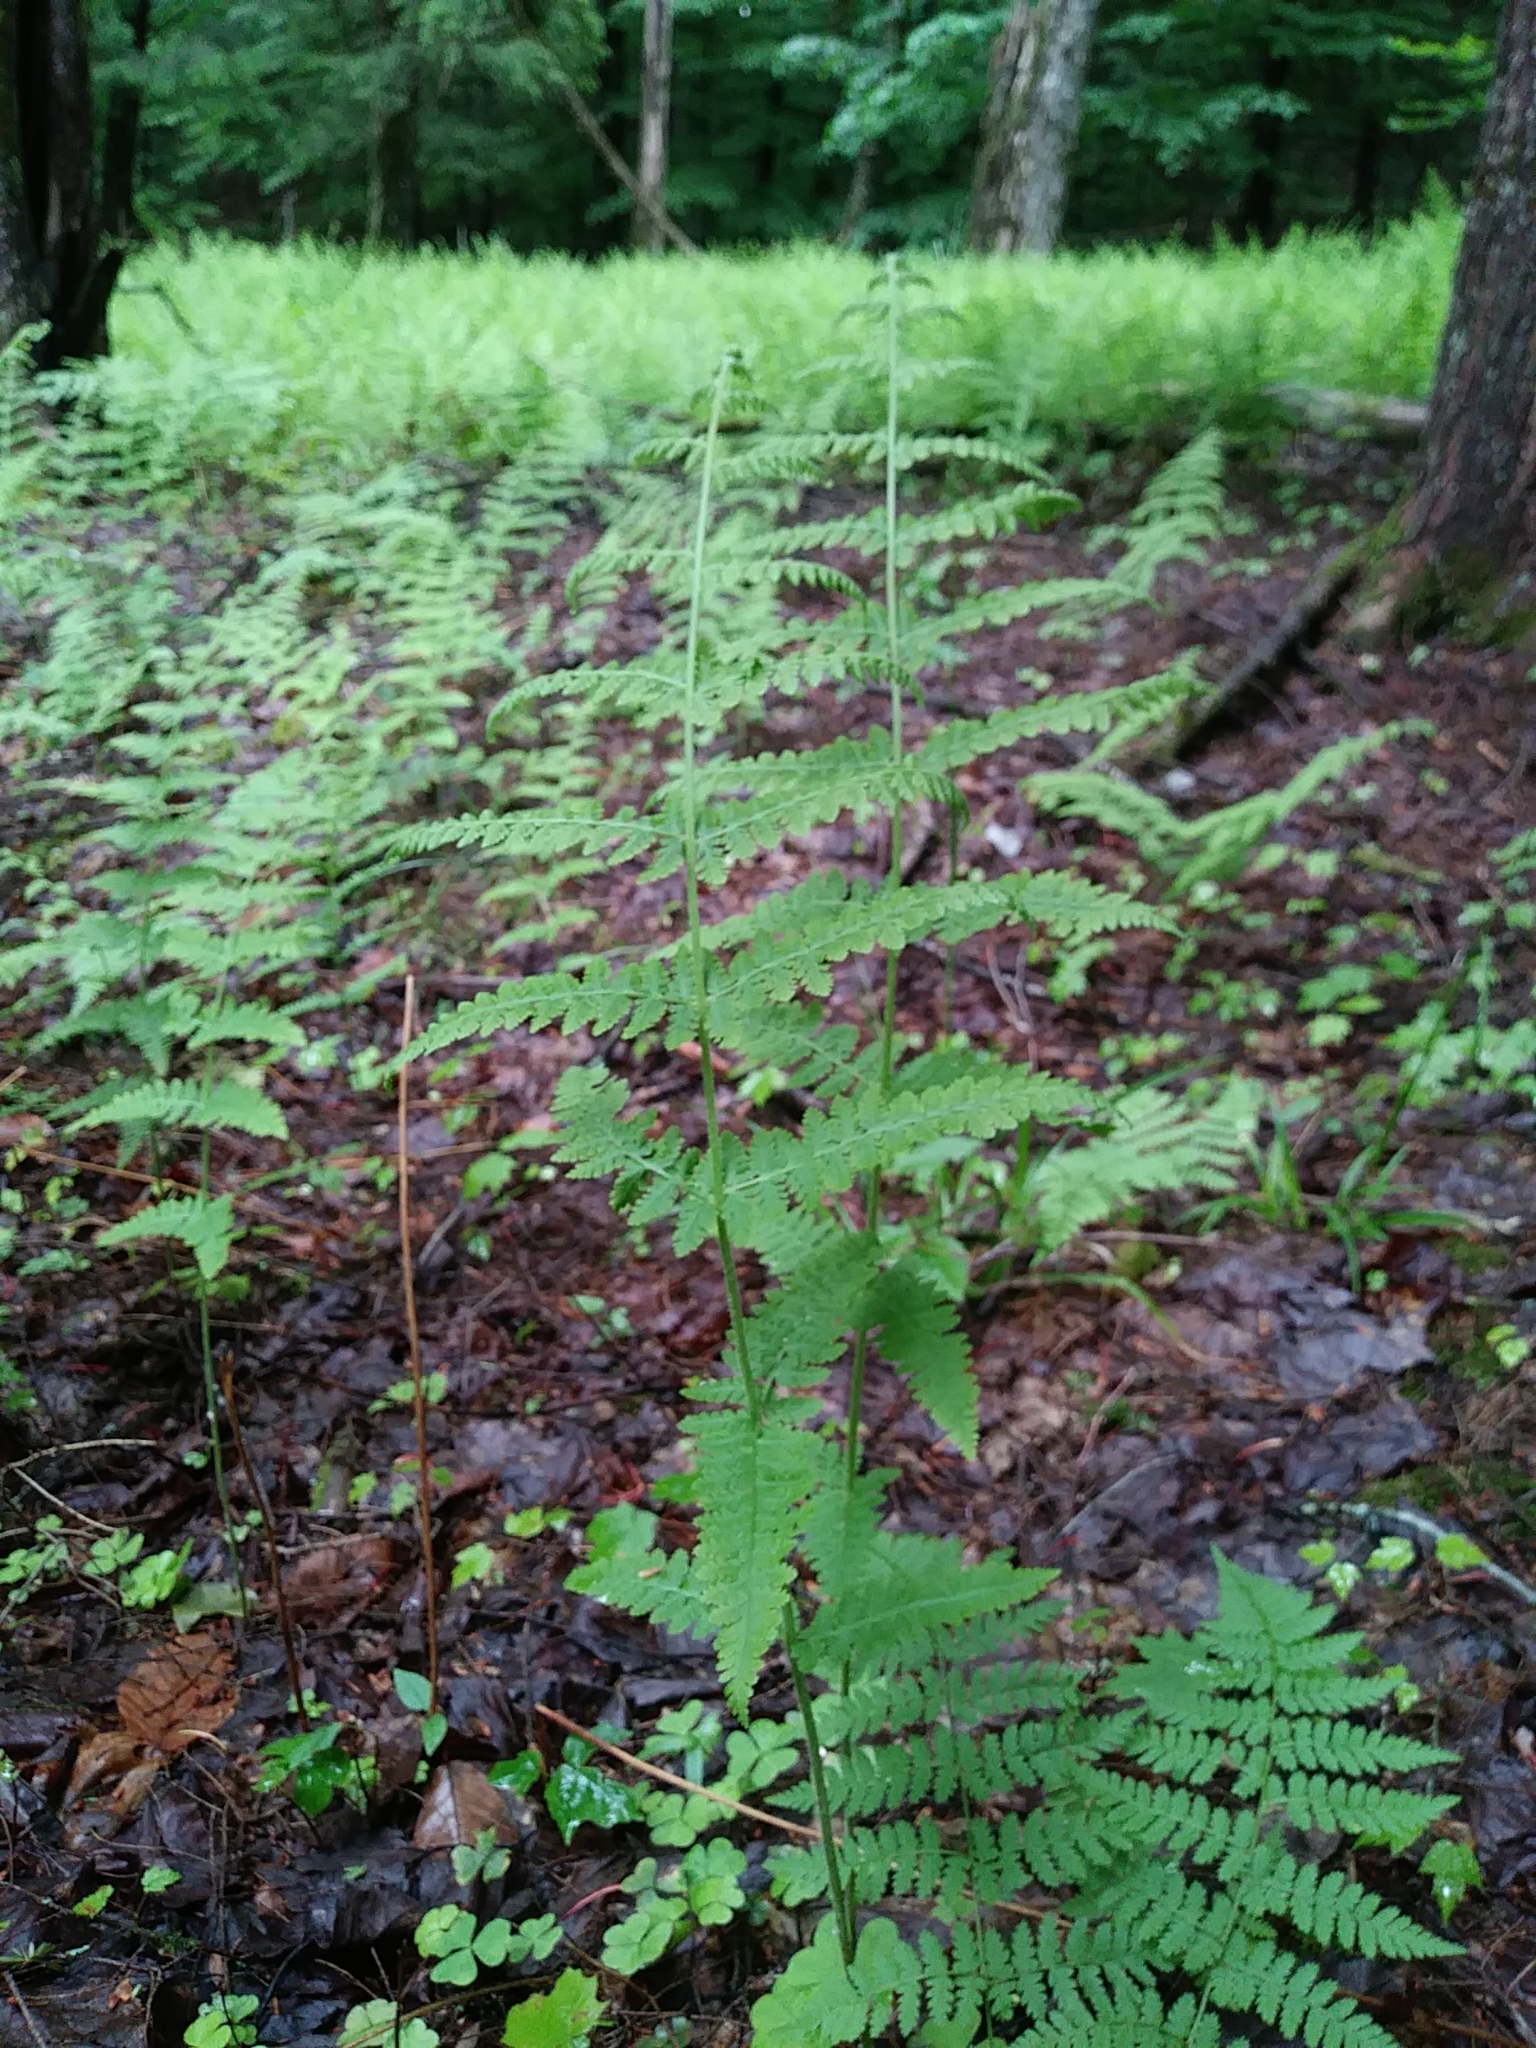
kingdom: Plantae
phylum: Tracheophyta
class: Polypodiopsida
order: Polypodiales
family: Dennstaedtiaceae
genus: Sitobolium
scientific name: Sitobolium punctilobum
